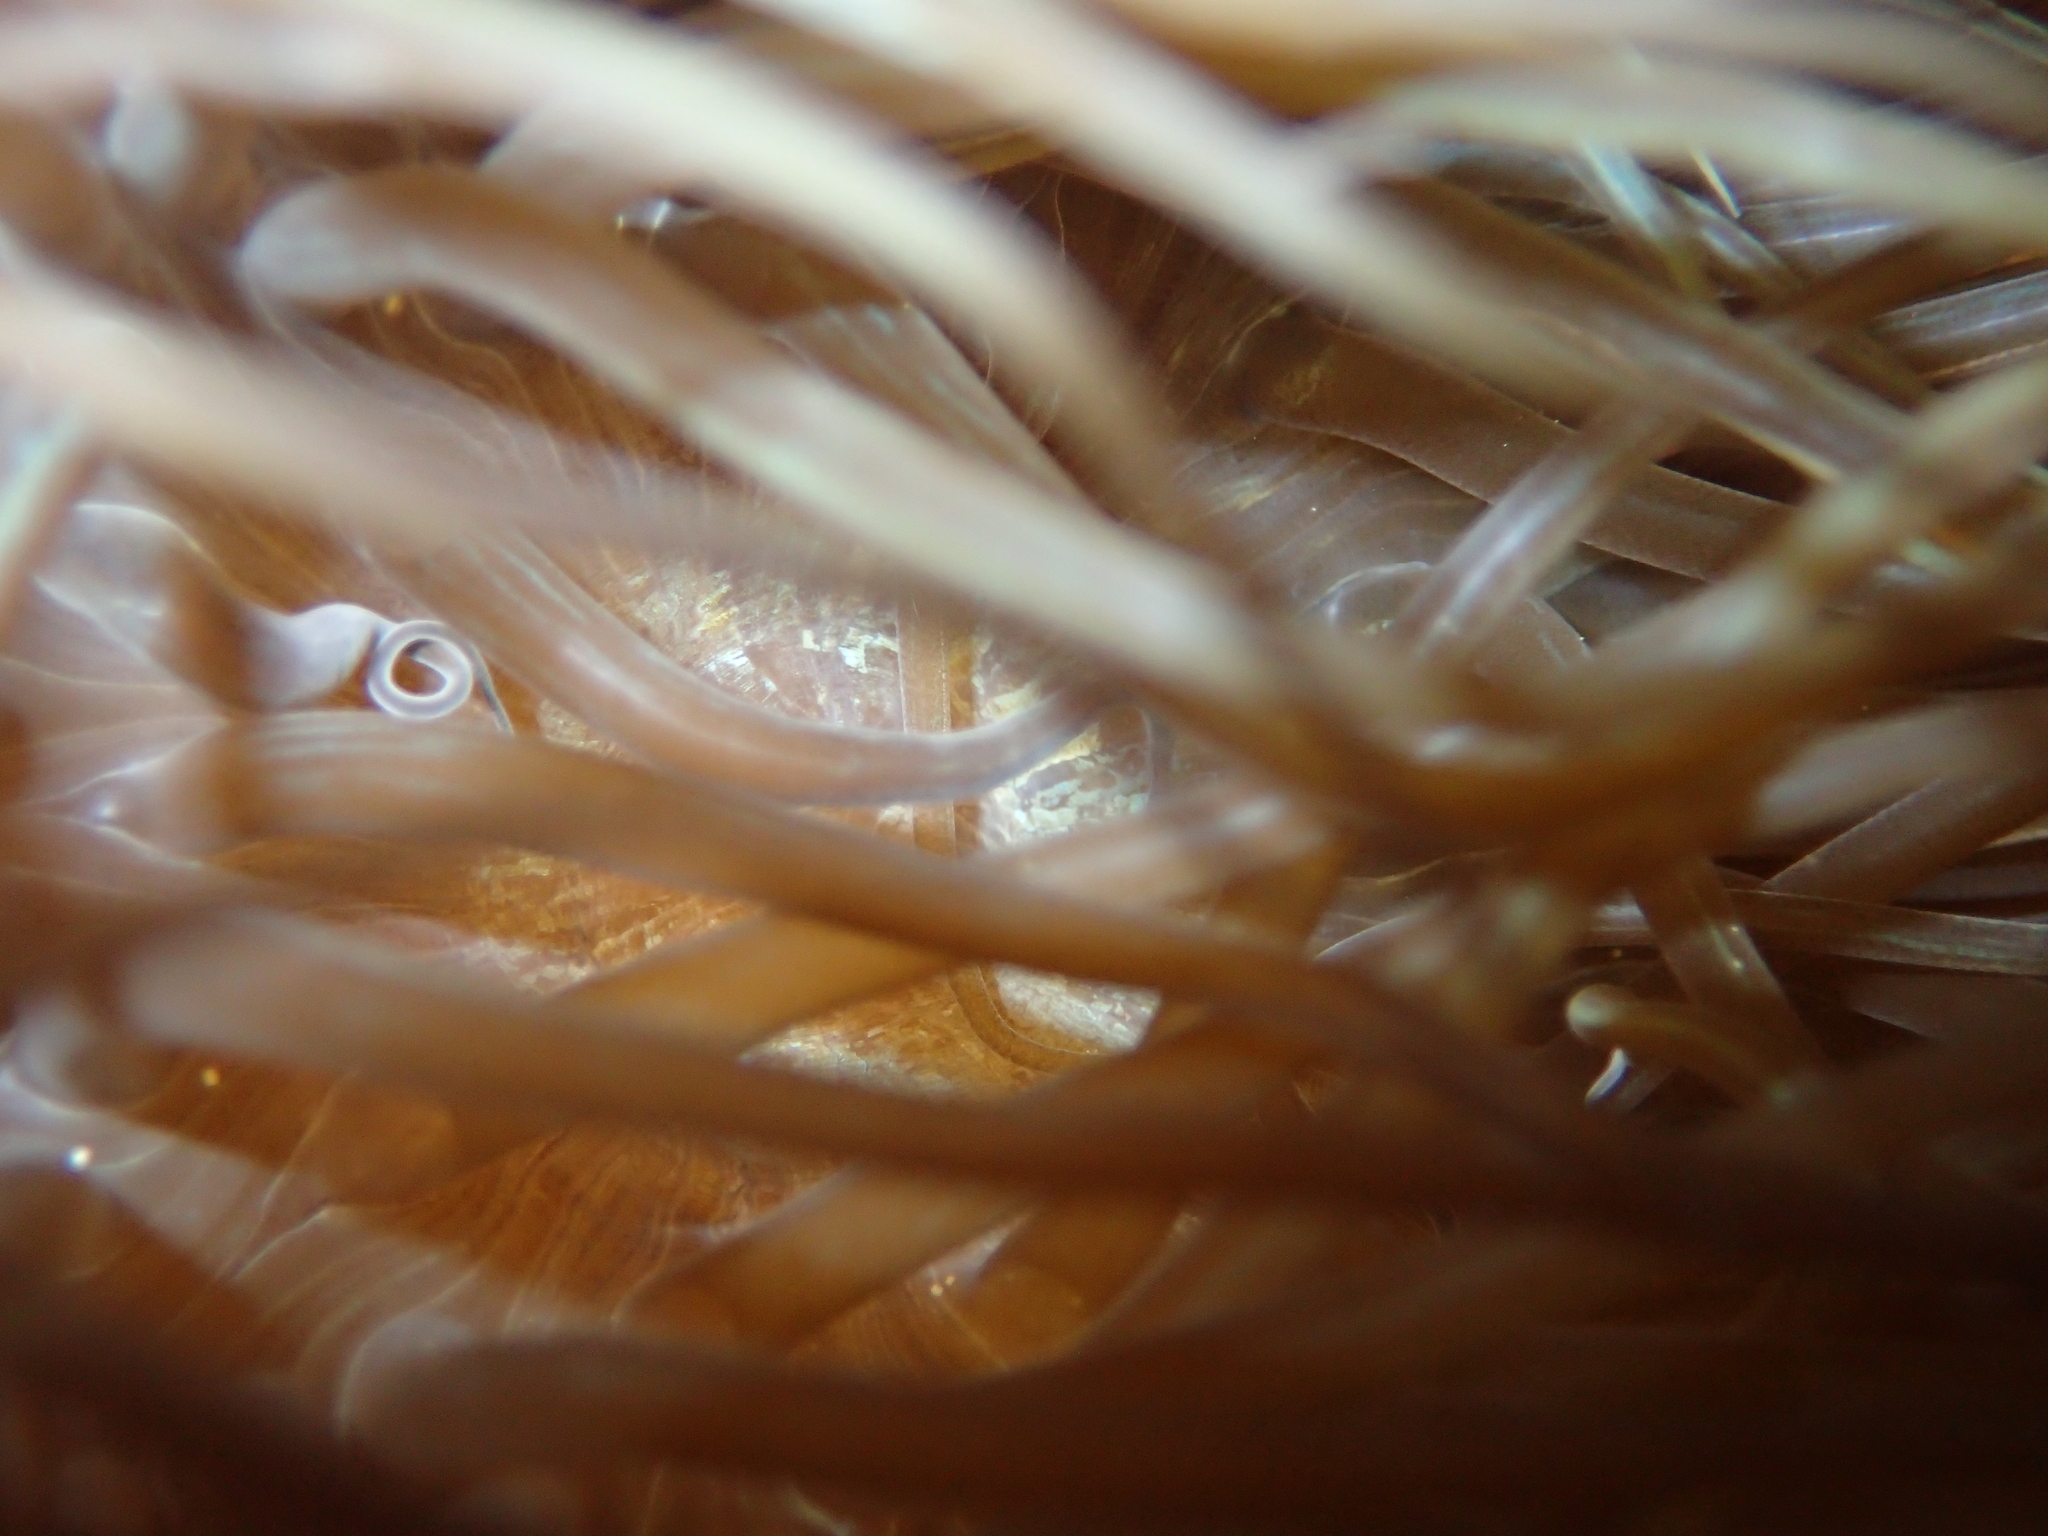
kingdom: Animalia
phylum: Cnidaria
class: Anthozoa
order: Actiniaria
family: Actiniidae
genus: Anemonia
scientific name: Anemonia viridis
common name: Snakelocks anemone
